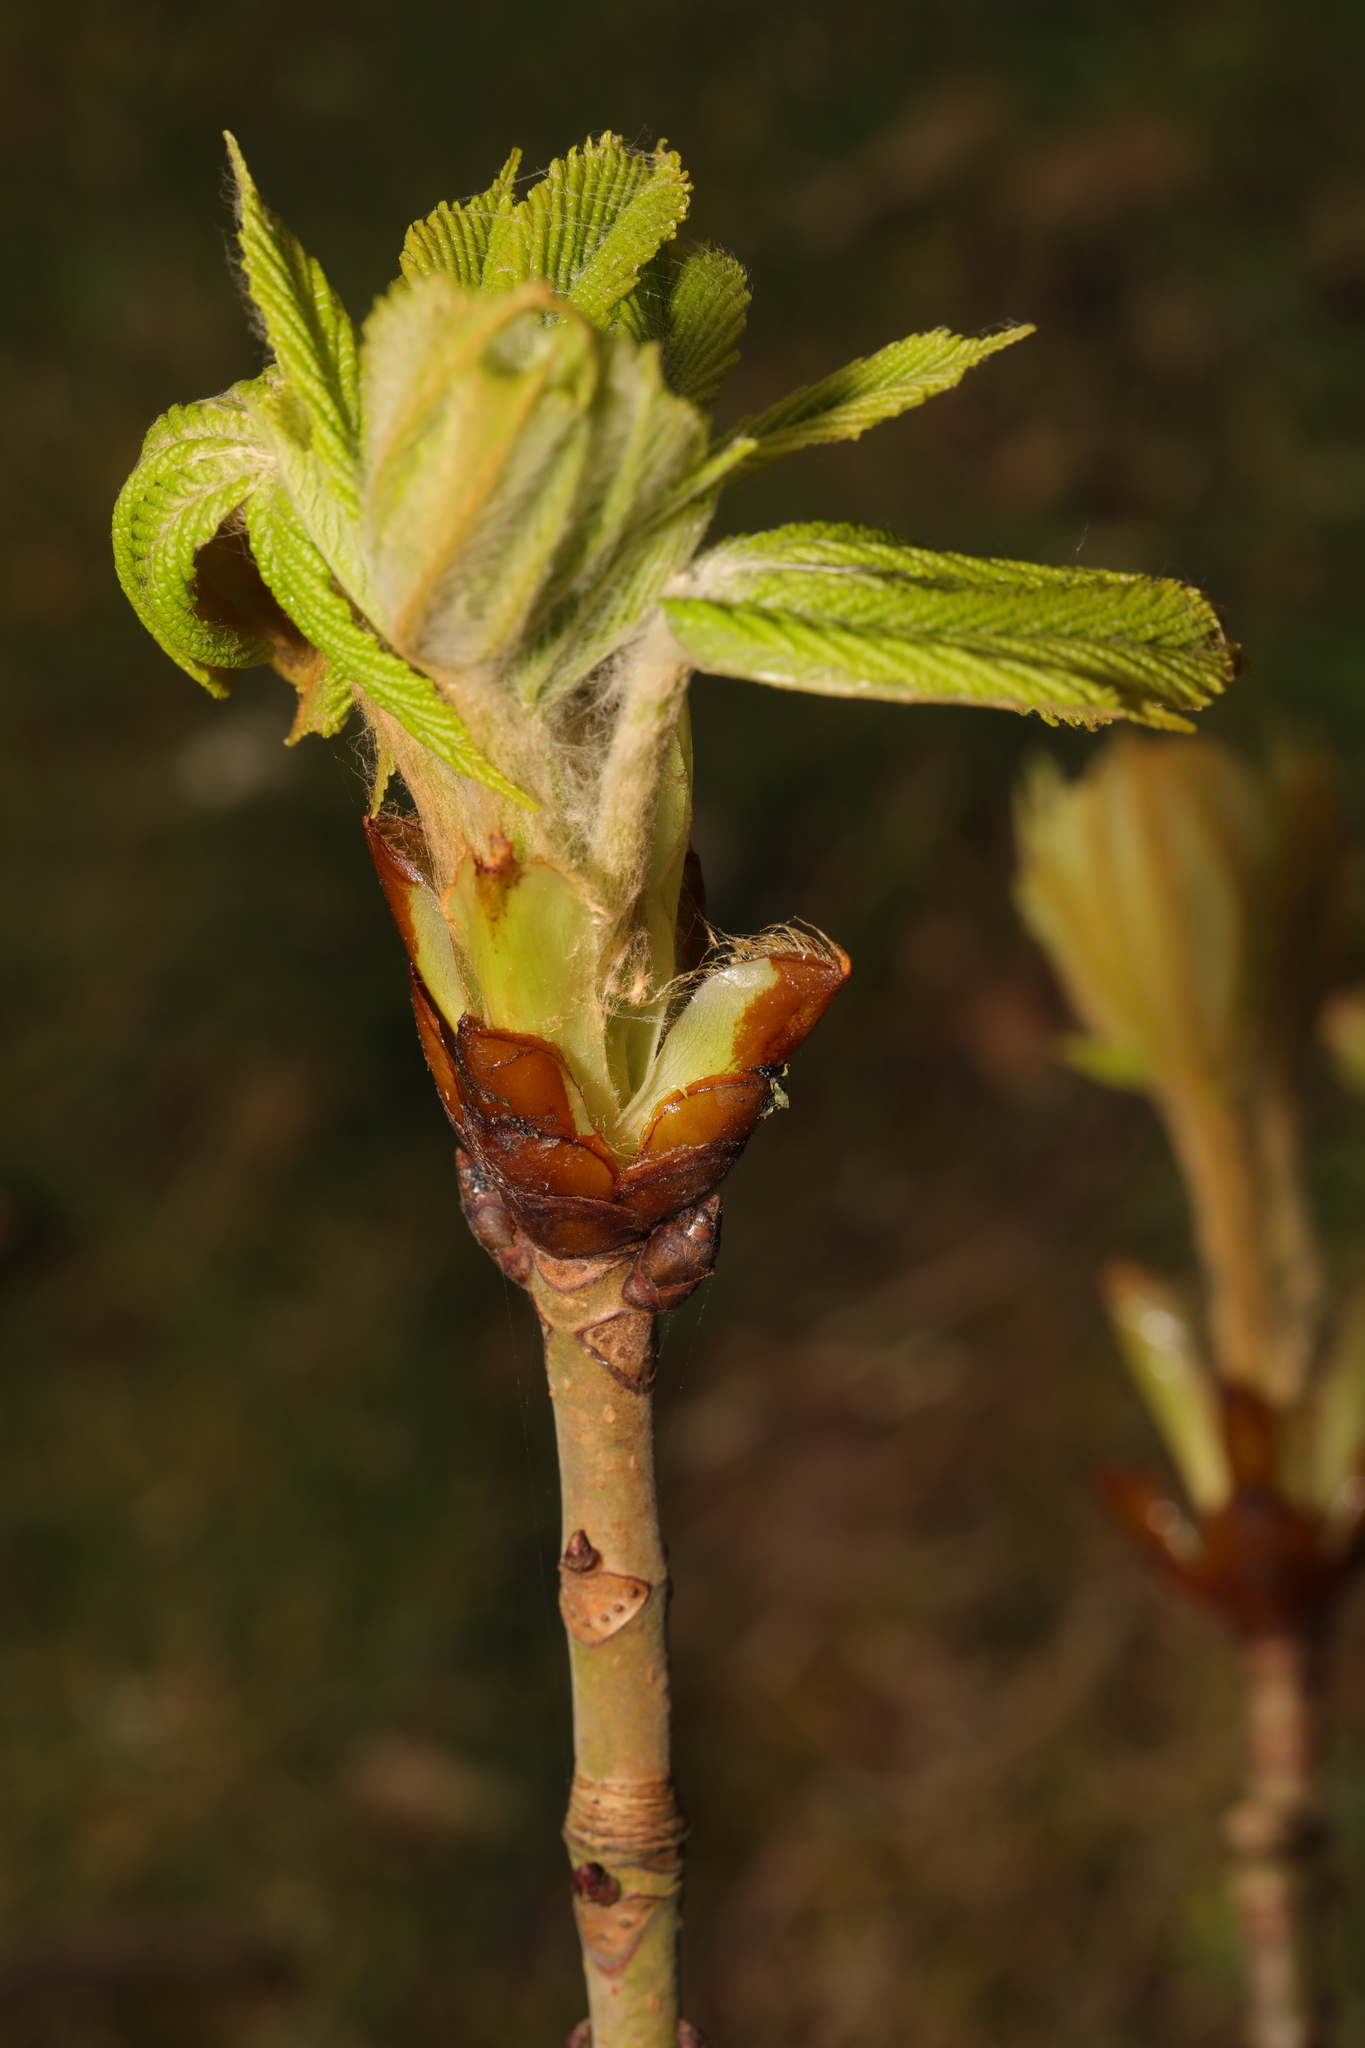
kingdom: Plantae
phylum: Tracheophyta
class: Magnoliopsida
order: Sapindales
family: Sapindaceae
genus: Aesculus
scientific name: Aesculus hippocastanum
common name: Horse-chestnut
